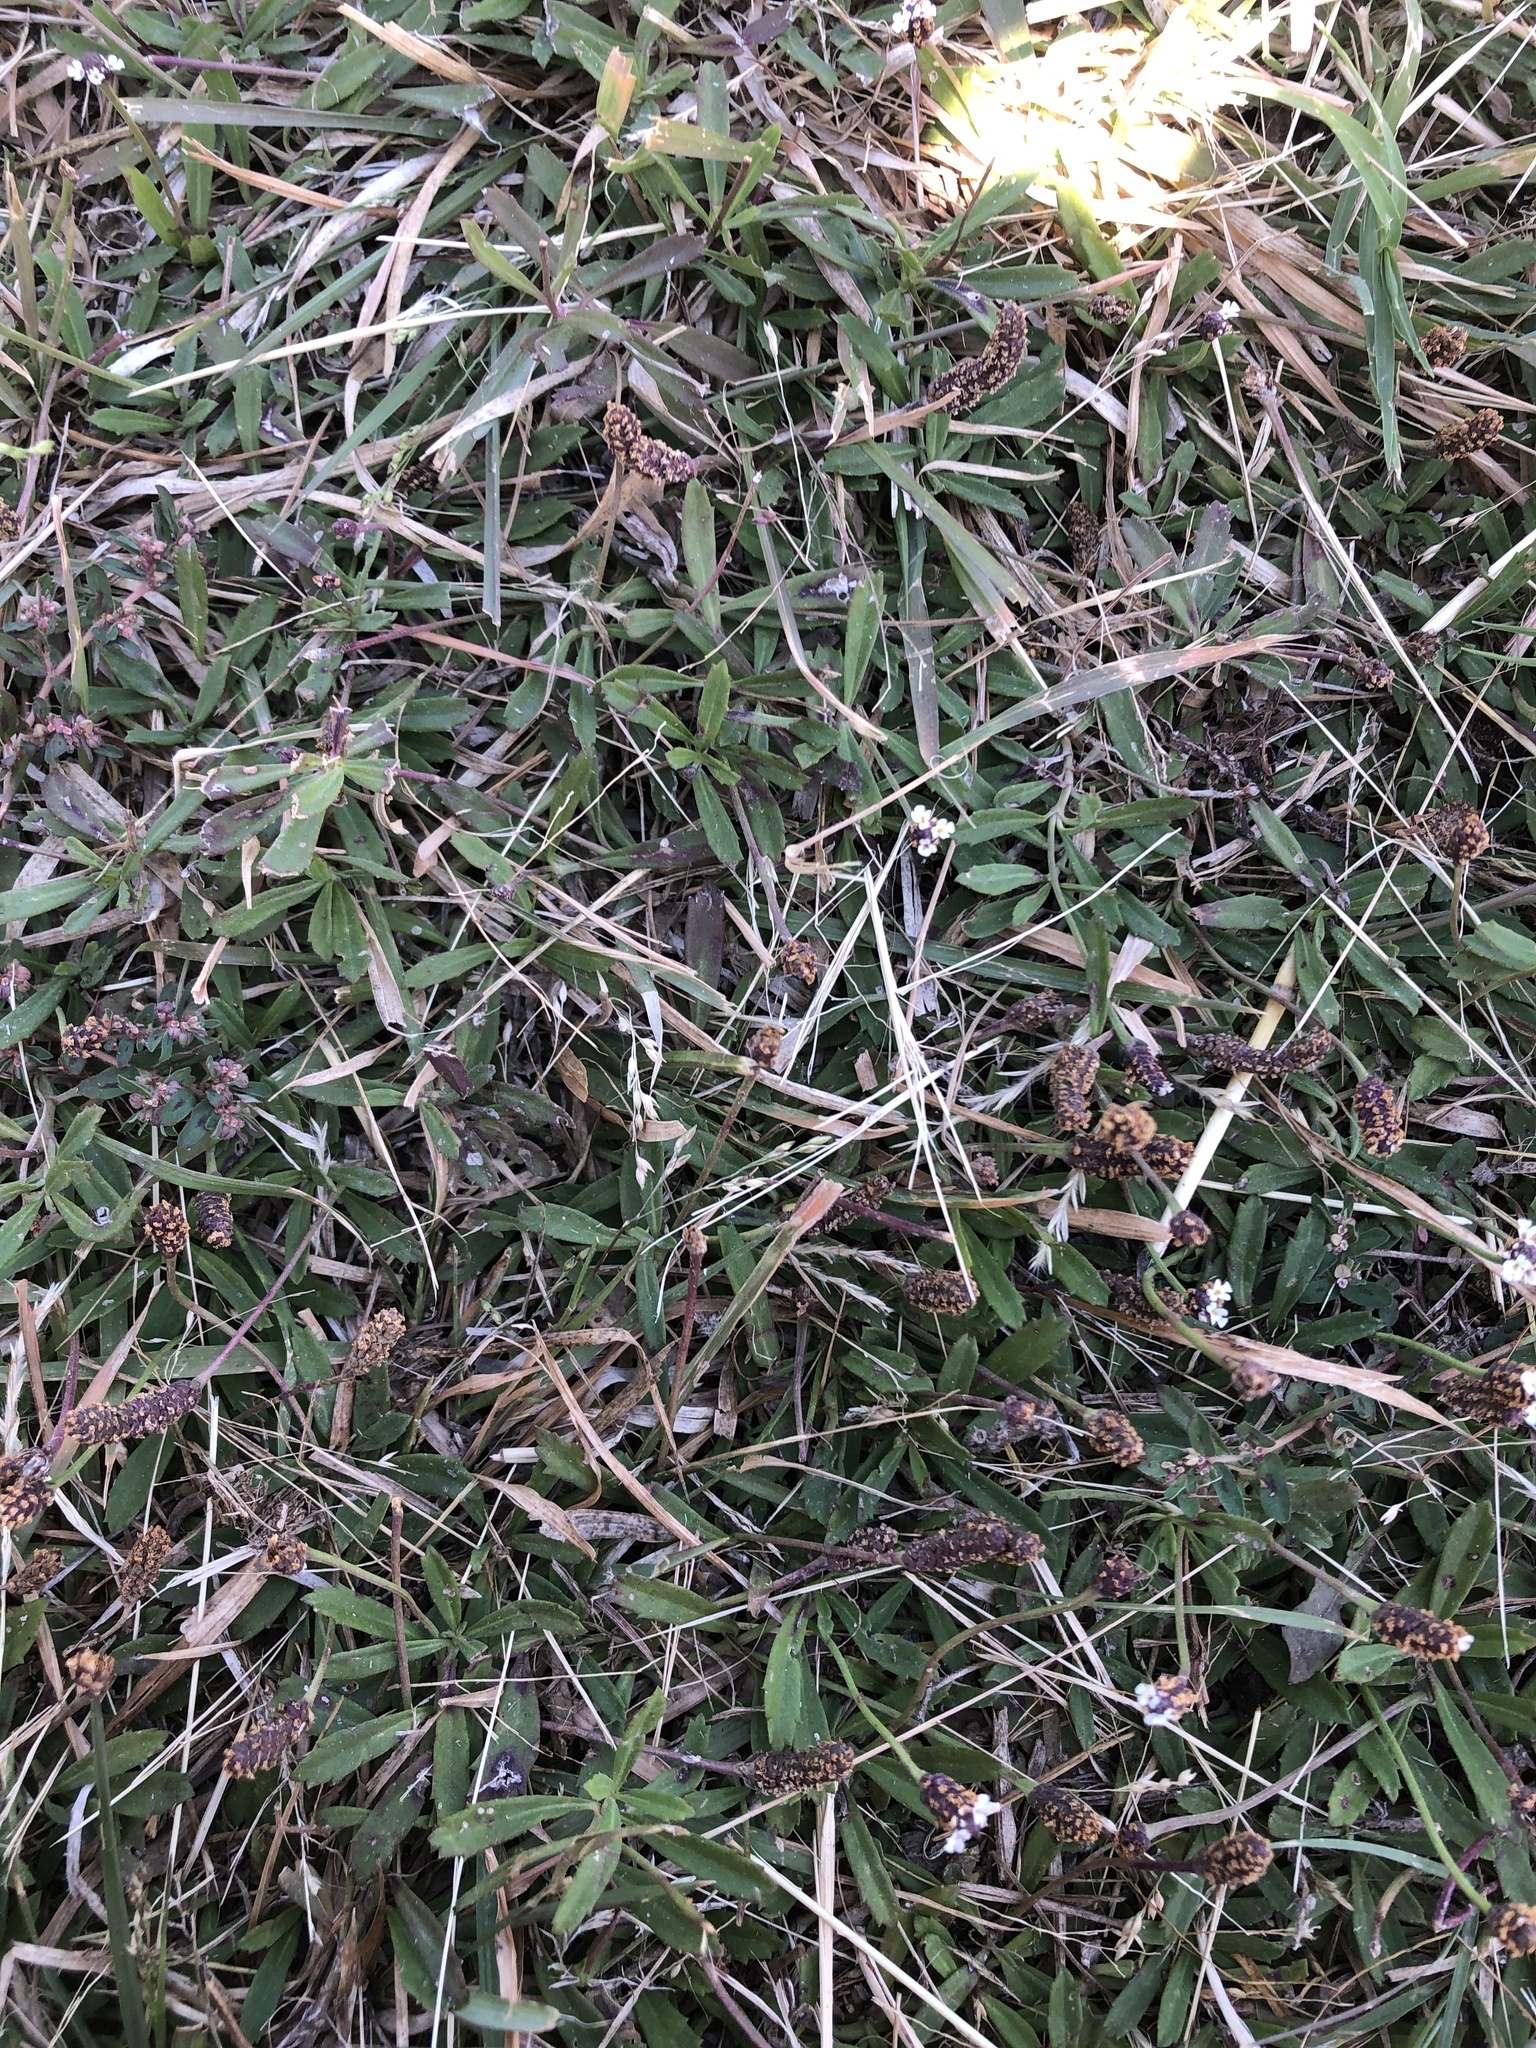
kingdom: Plantae
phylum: Tracheophyta
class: Magnoliopsida
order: Lamiales
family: Verbenaceae
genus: Phyla
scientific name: Phyla nodiflora
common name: Frogfruit
